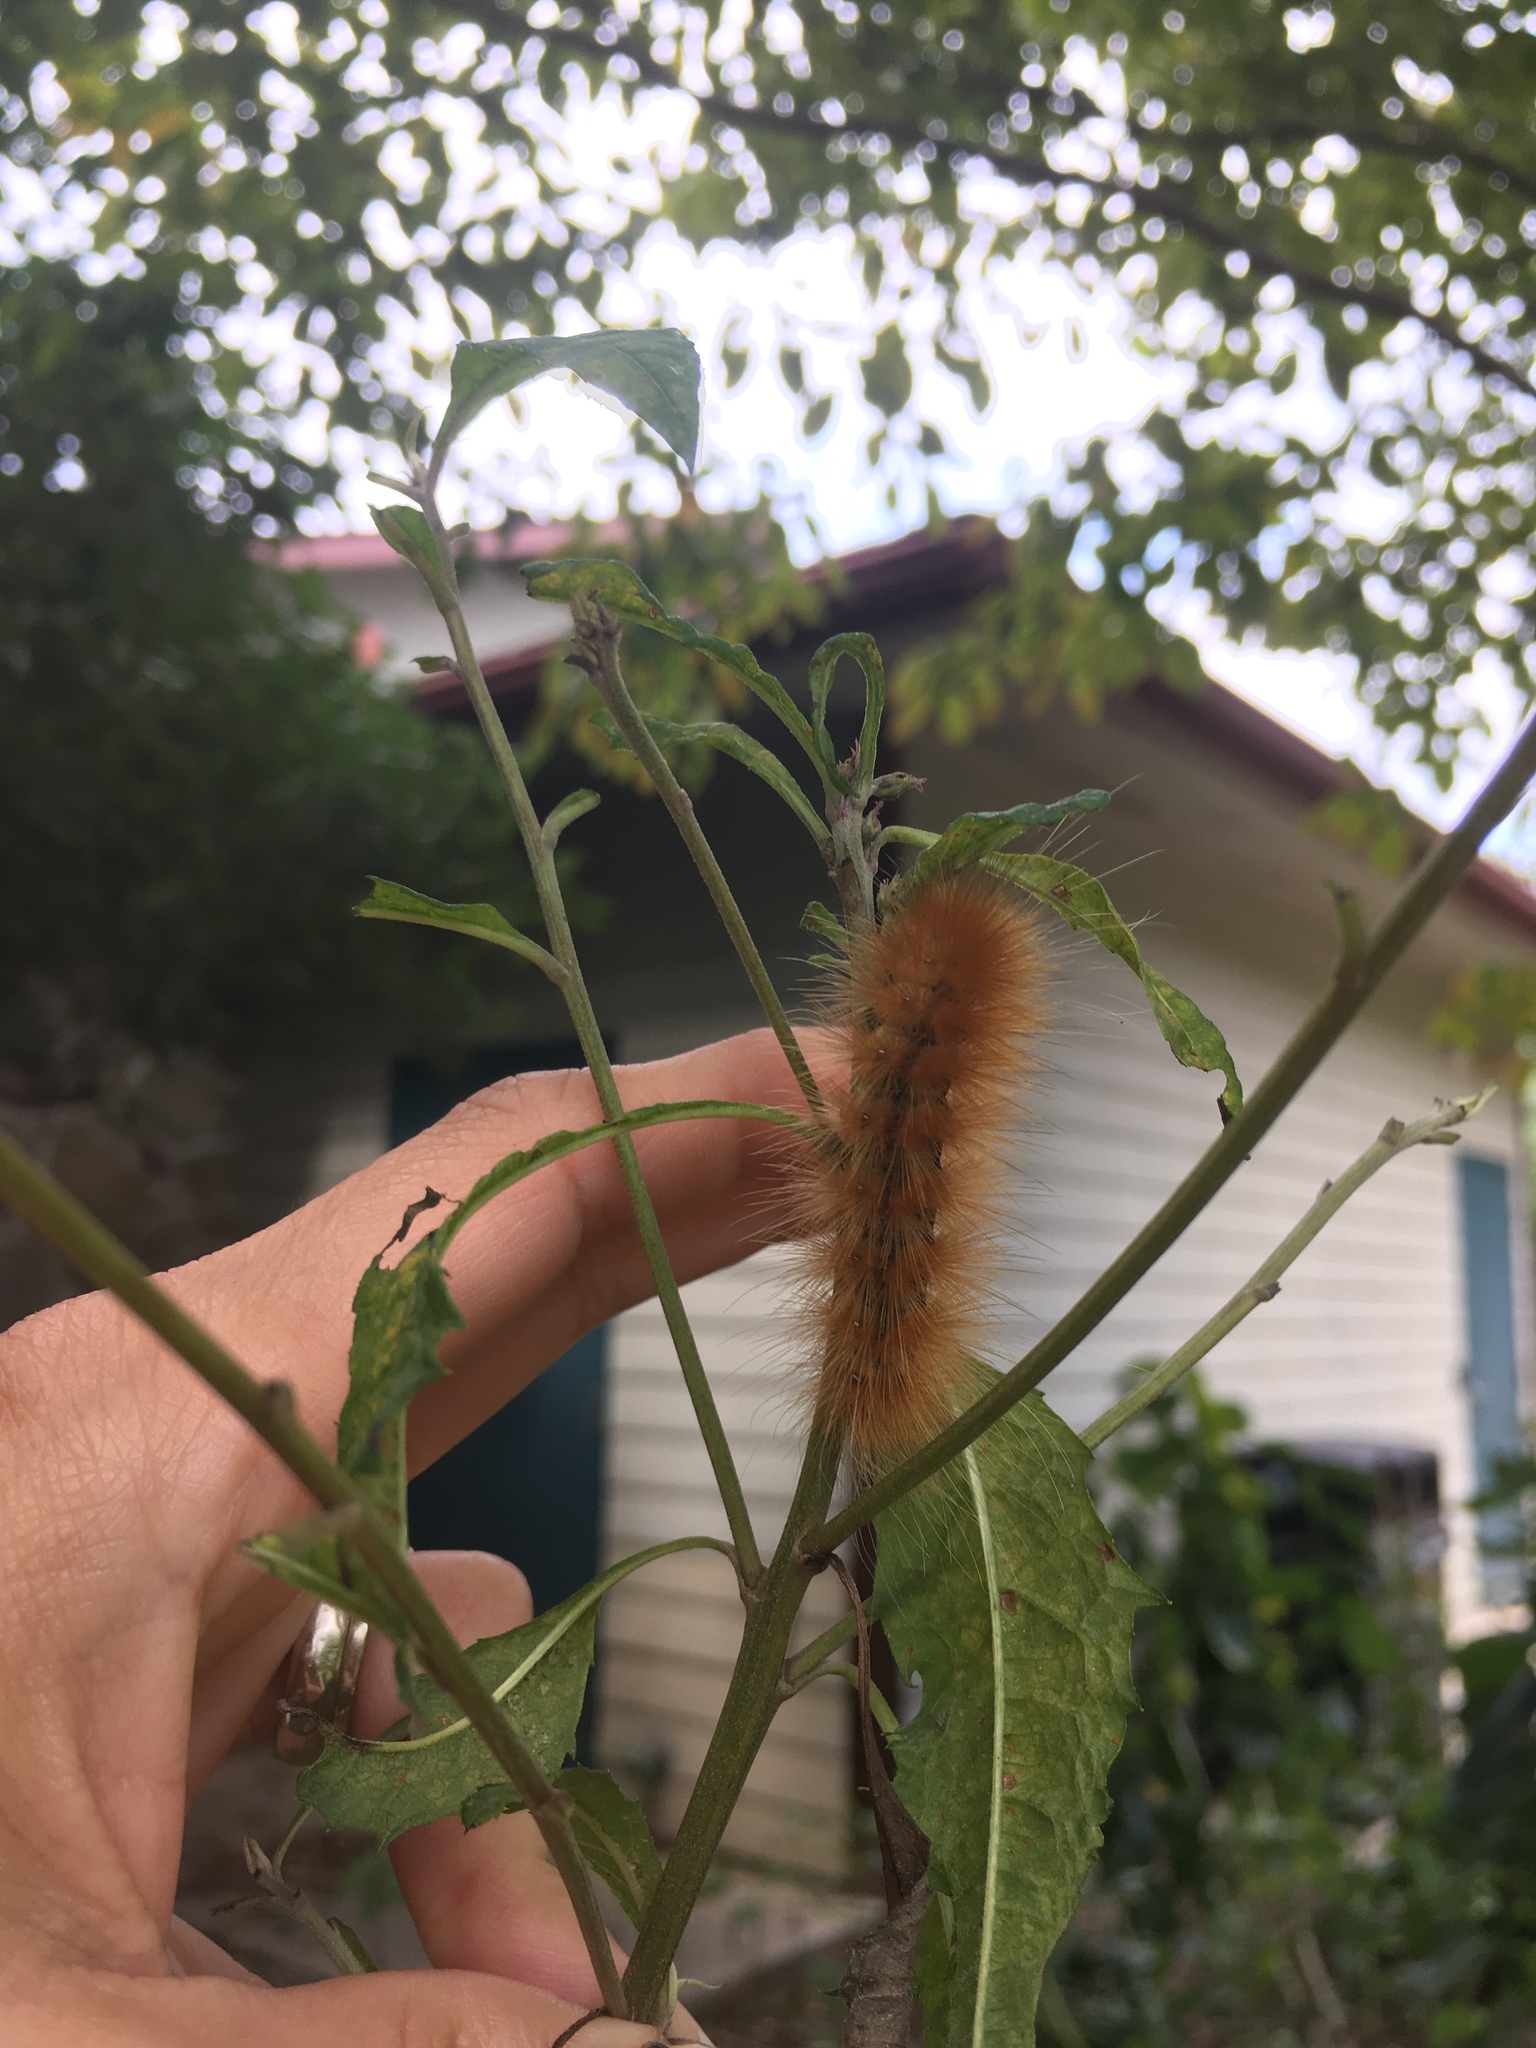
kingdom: Animalia
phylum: Arthropoda
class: Insecta
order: Lepidoptera
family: Erebidae
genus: Spilosoma
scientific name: Spilosoma virginica
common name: Virginia tiger moth
